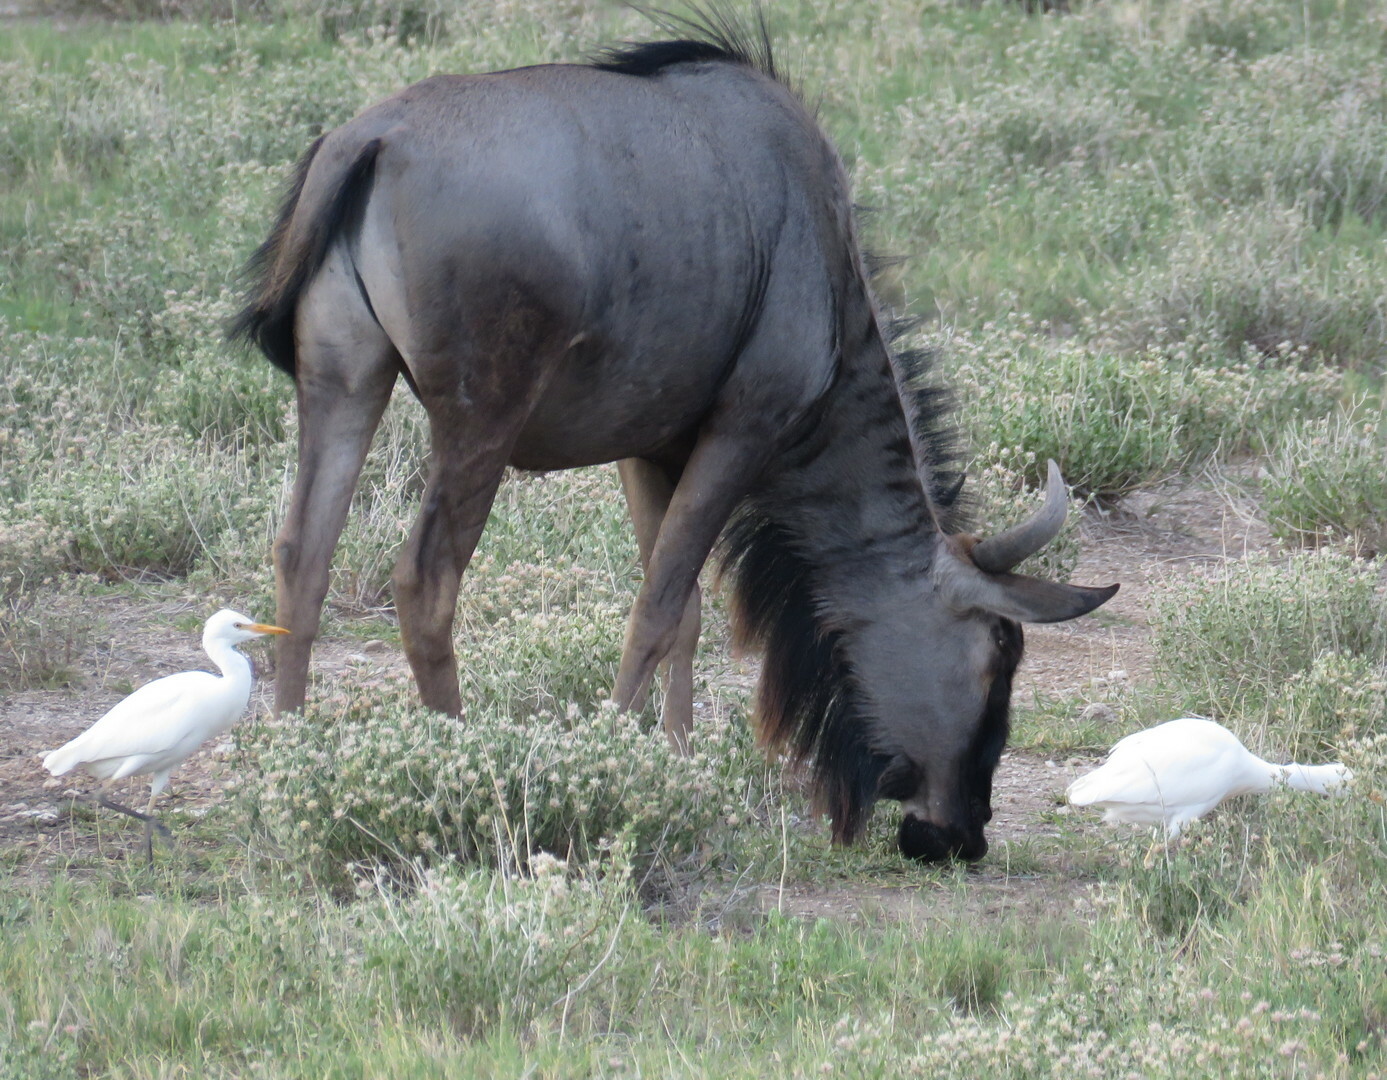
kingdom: Animalia
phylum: Chordata
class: Mammalia
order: Artiodactyla
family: Bovidae
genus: Connochaetes
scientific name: Connochaetes taurinus
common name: Blue wildebeest
